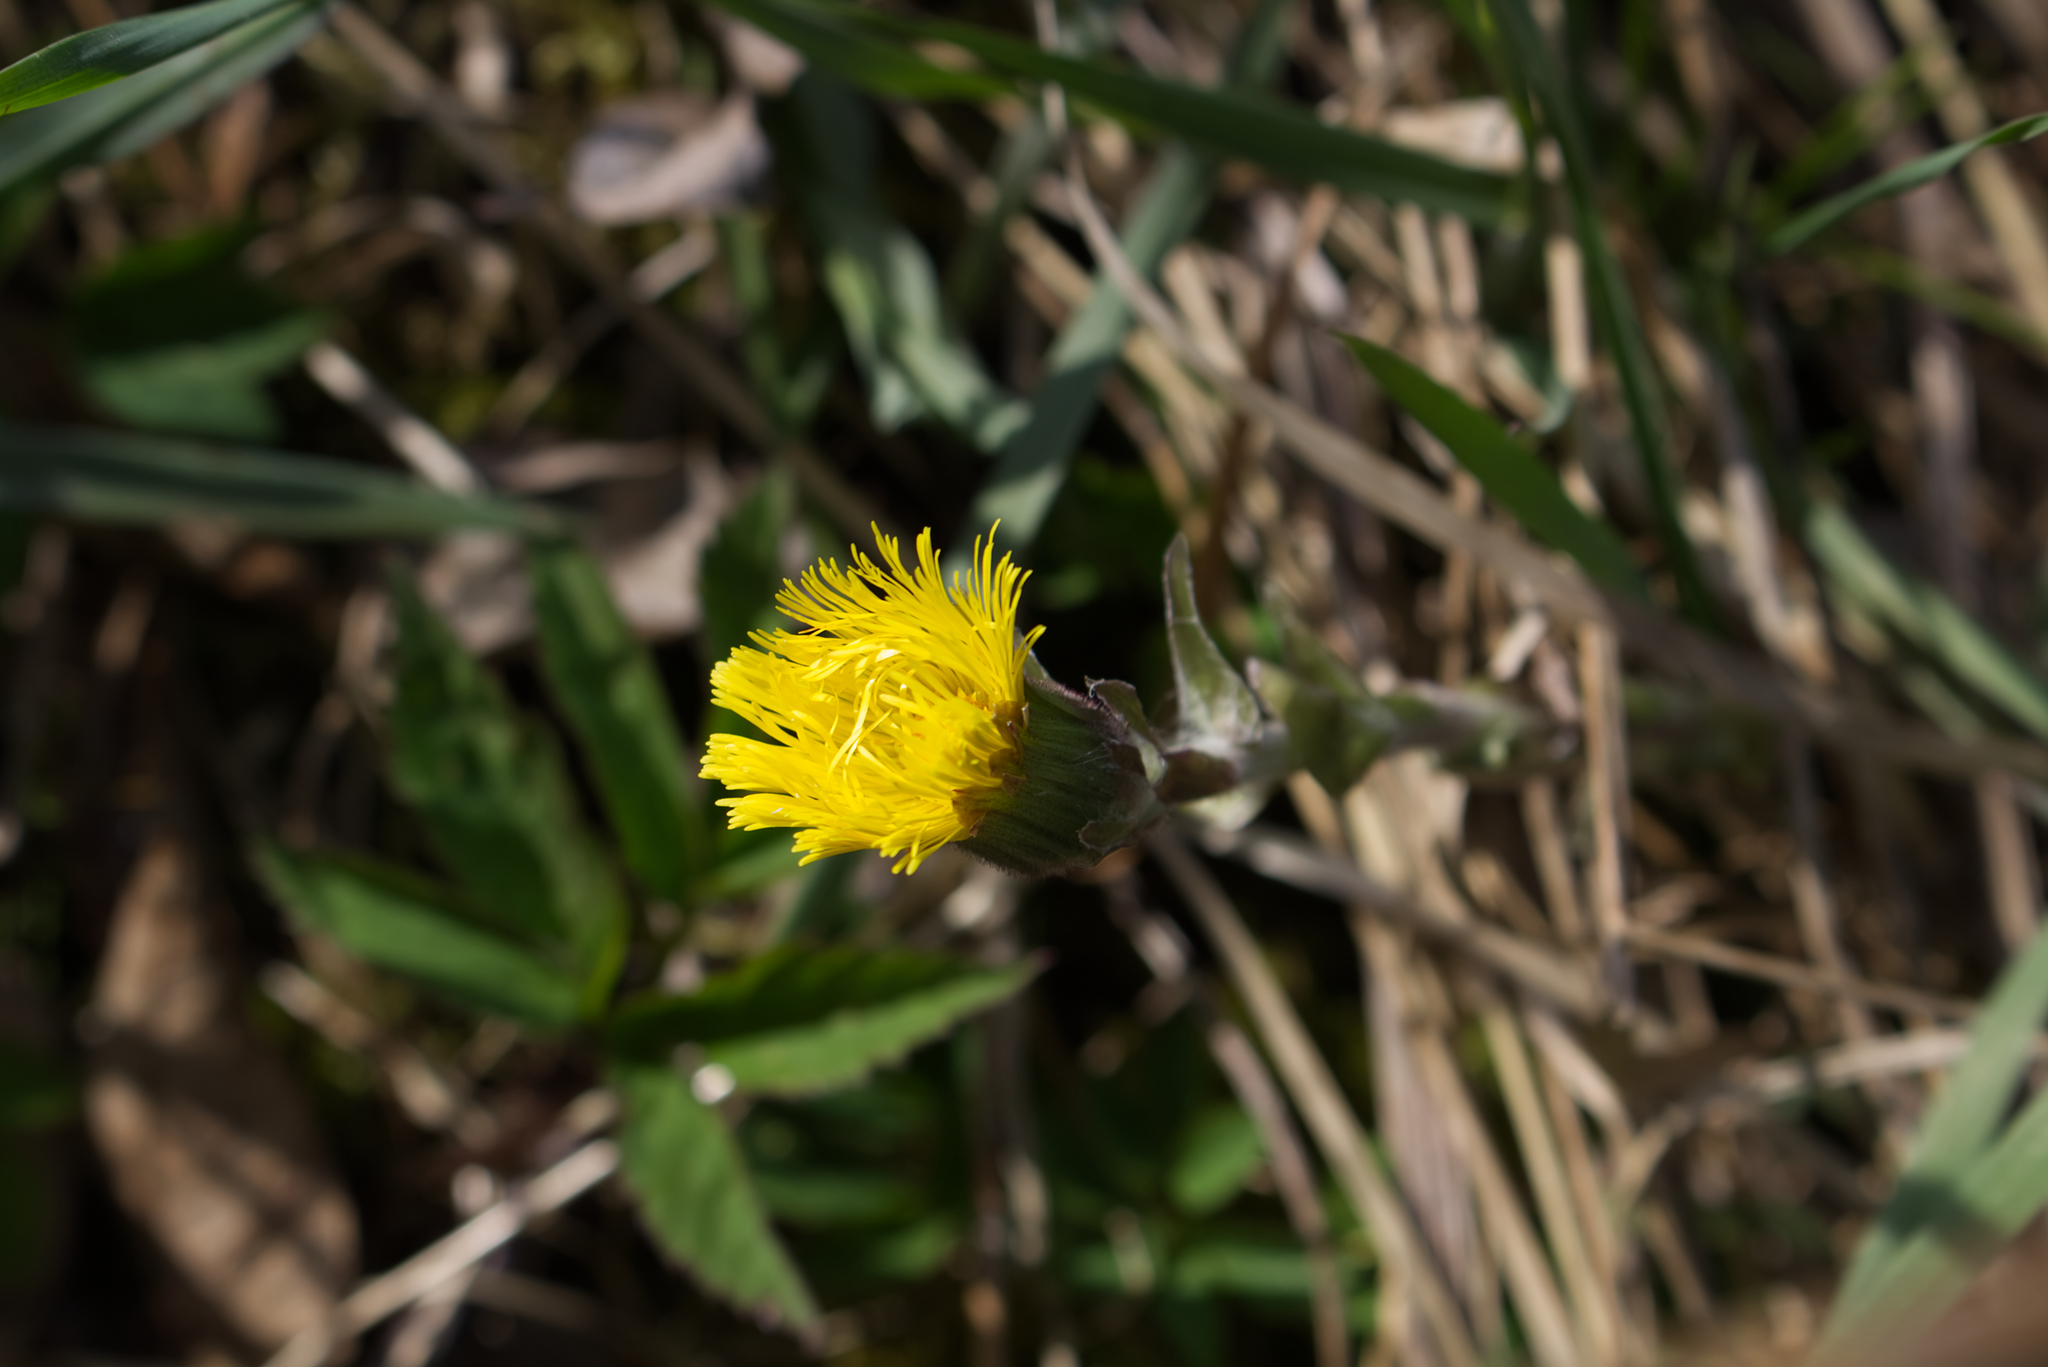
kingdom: Plantae
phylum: Tracheophyta
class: Magnoliopsida
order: Asterales
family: Asteraceae
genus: Tussilago
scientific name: Tussilago farfara
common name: Coltsfoot
